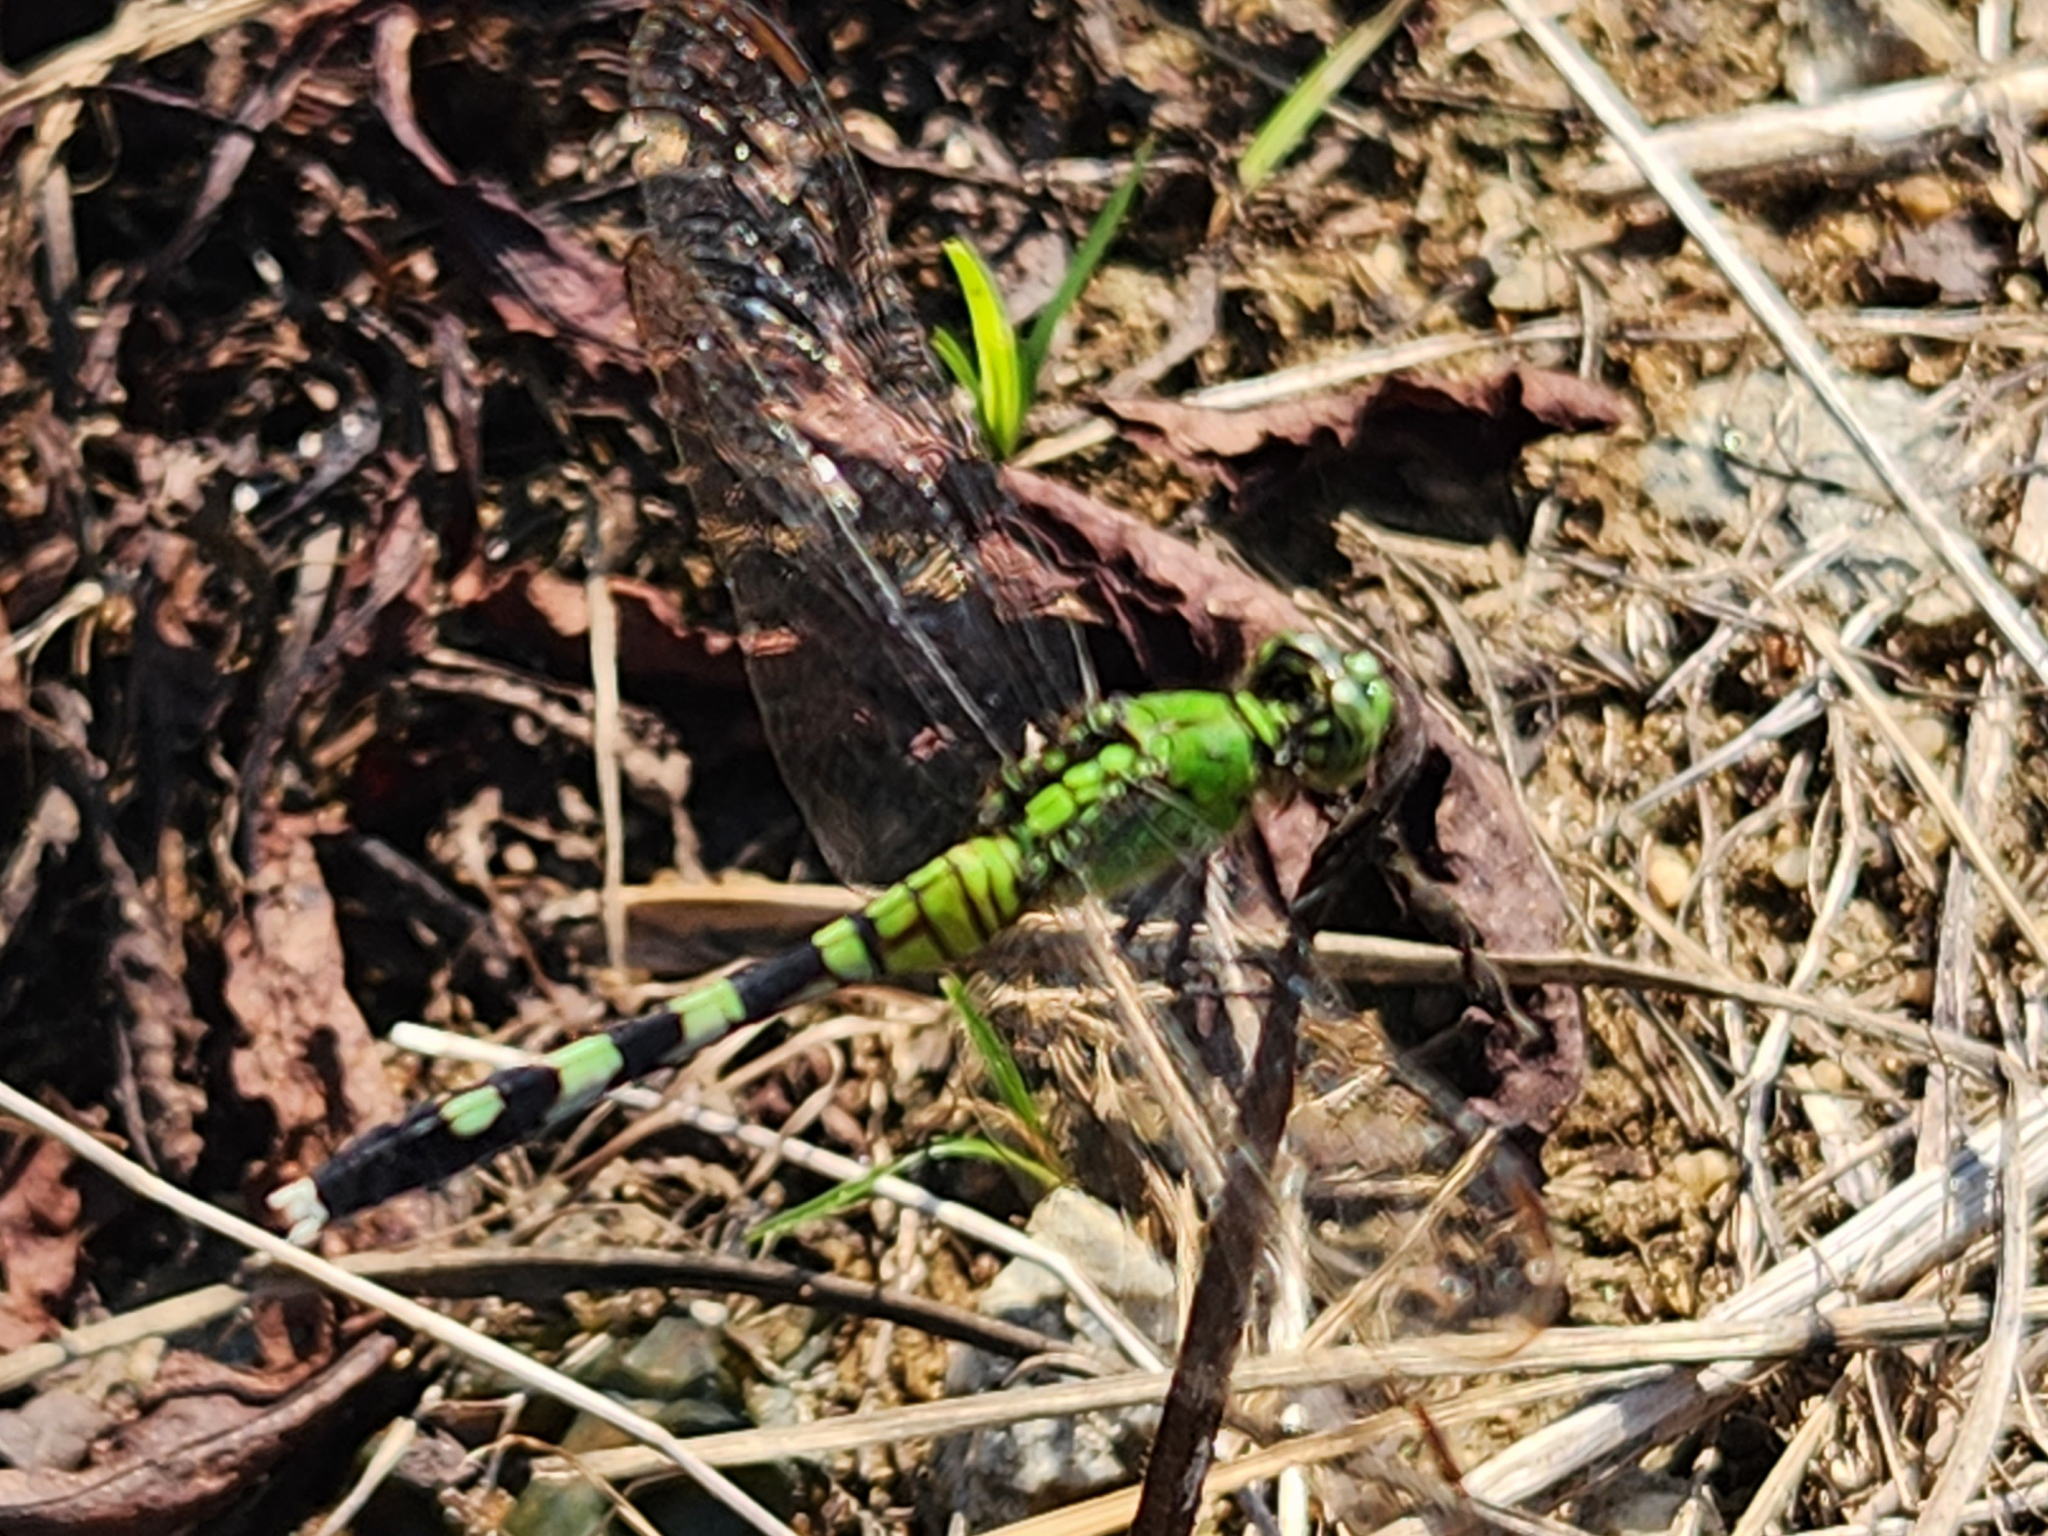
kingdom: Animalia
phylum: Arthropoda
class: Insecta
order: Odonata
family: Libellulidae
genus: Erythemis
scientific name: Erythemis simplicicollis
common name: Eastern pondhawk
